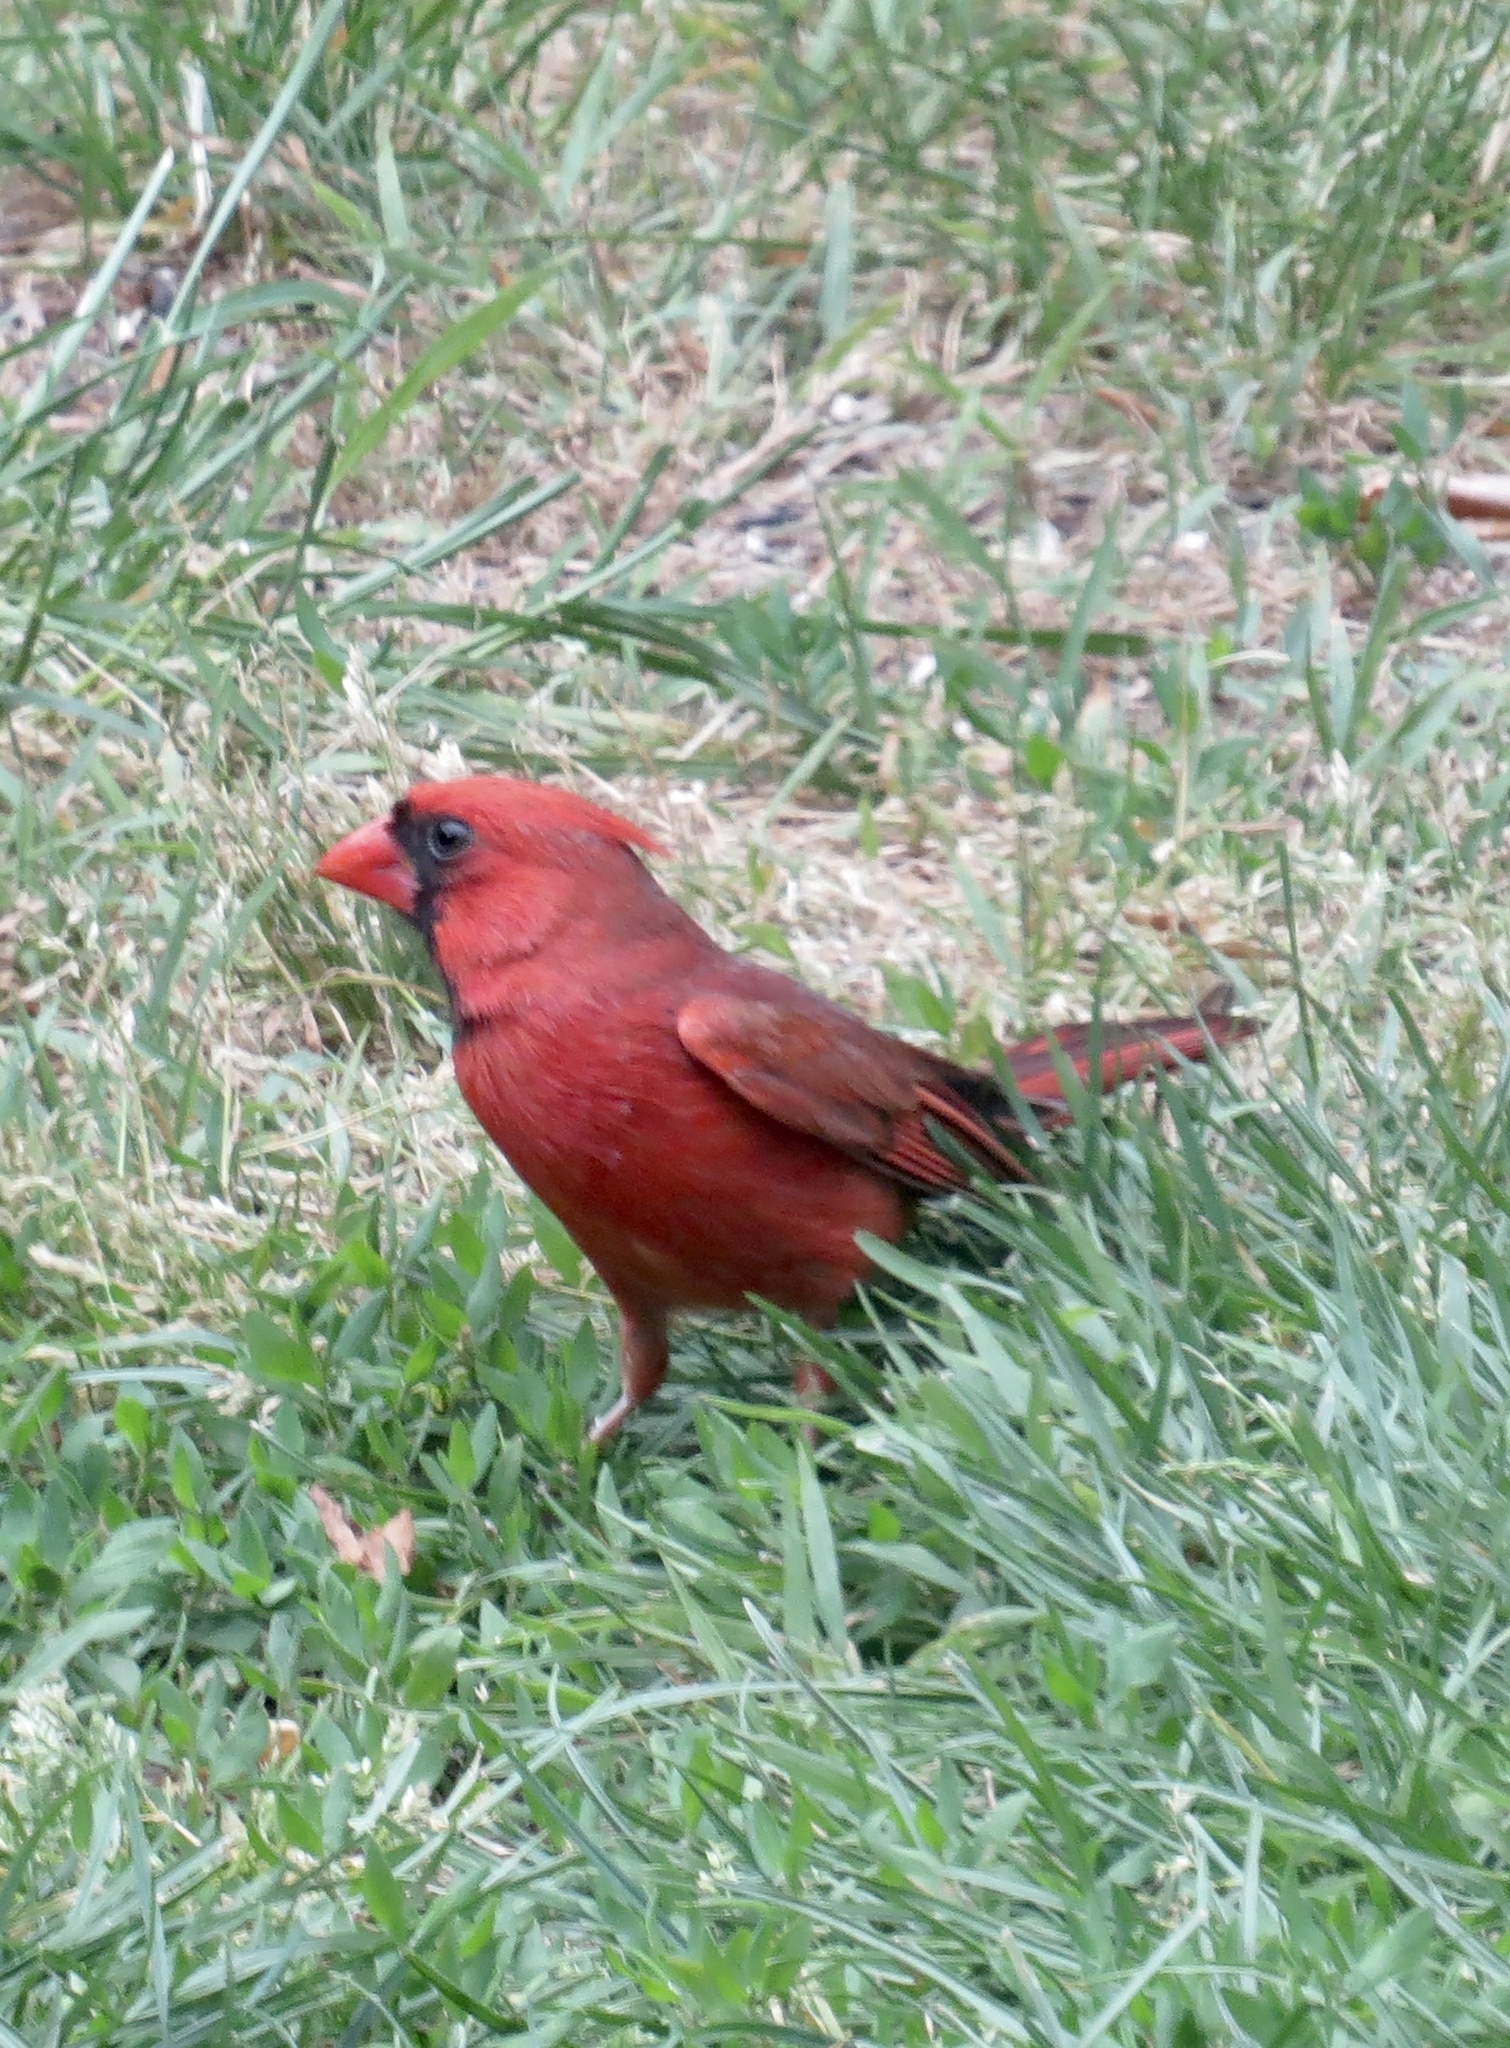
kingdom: Animalia
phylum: Chordata
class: Aves
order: Passeriformes
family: Cardinalidae
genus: Cardinalis
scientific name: Cardinalis cardinalis
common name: Northern cardinal
